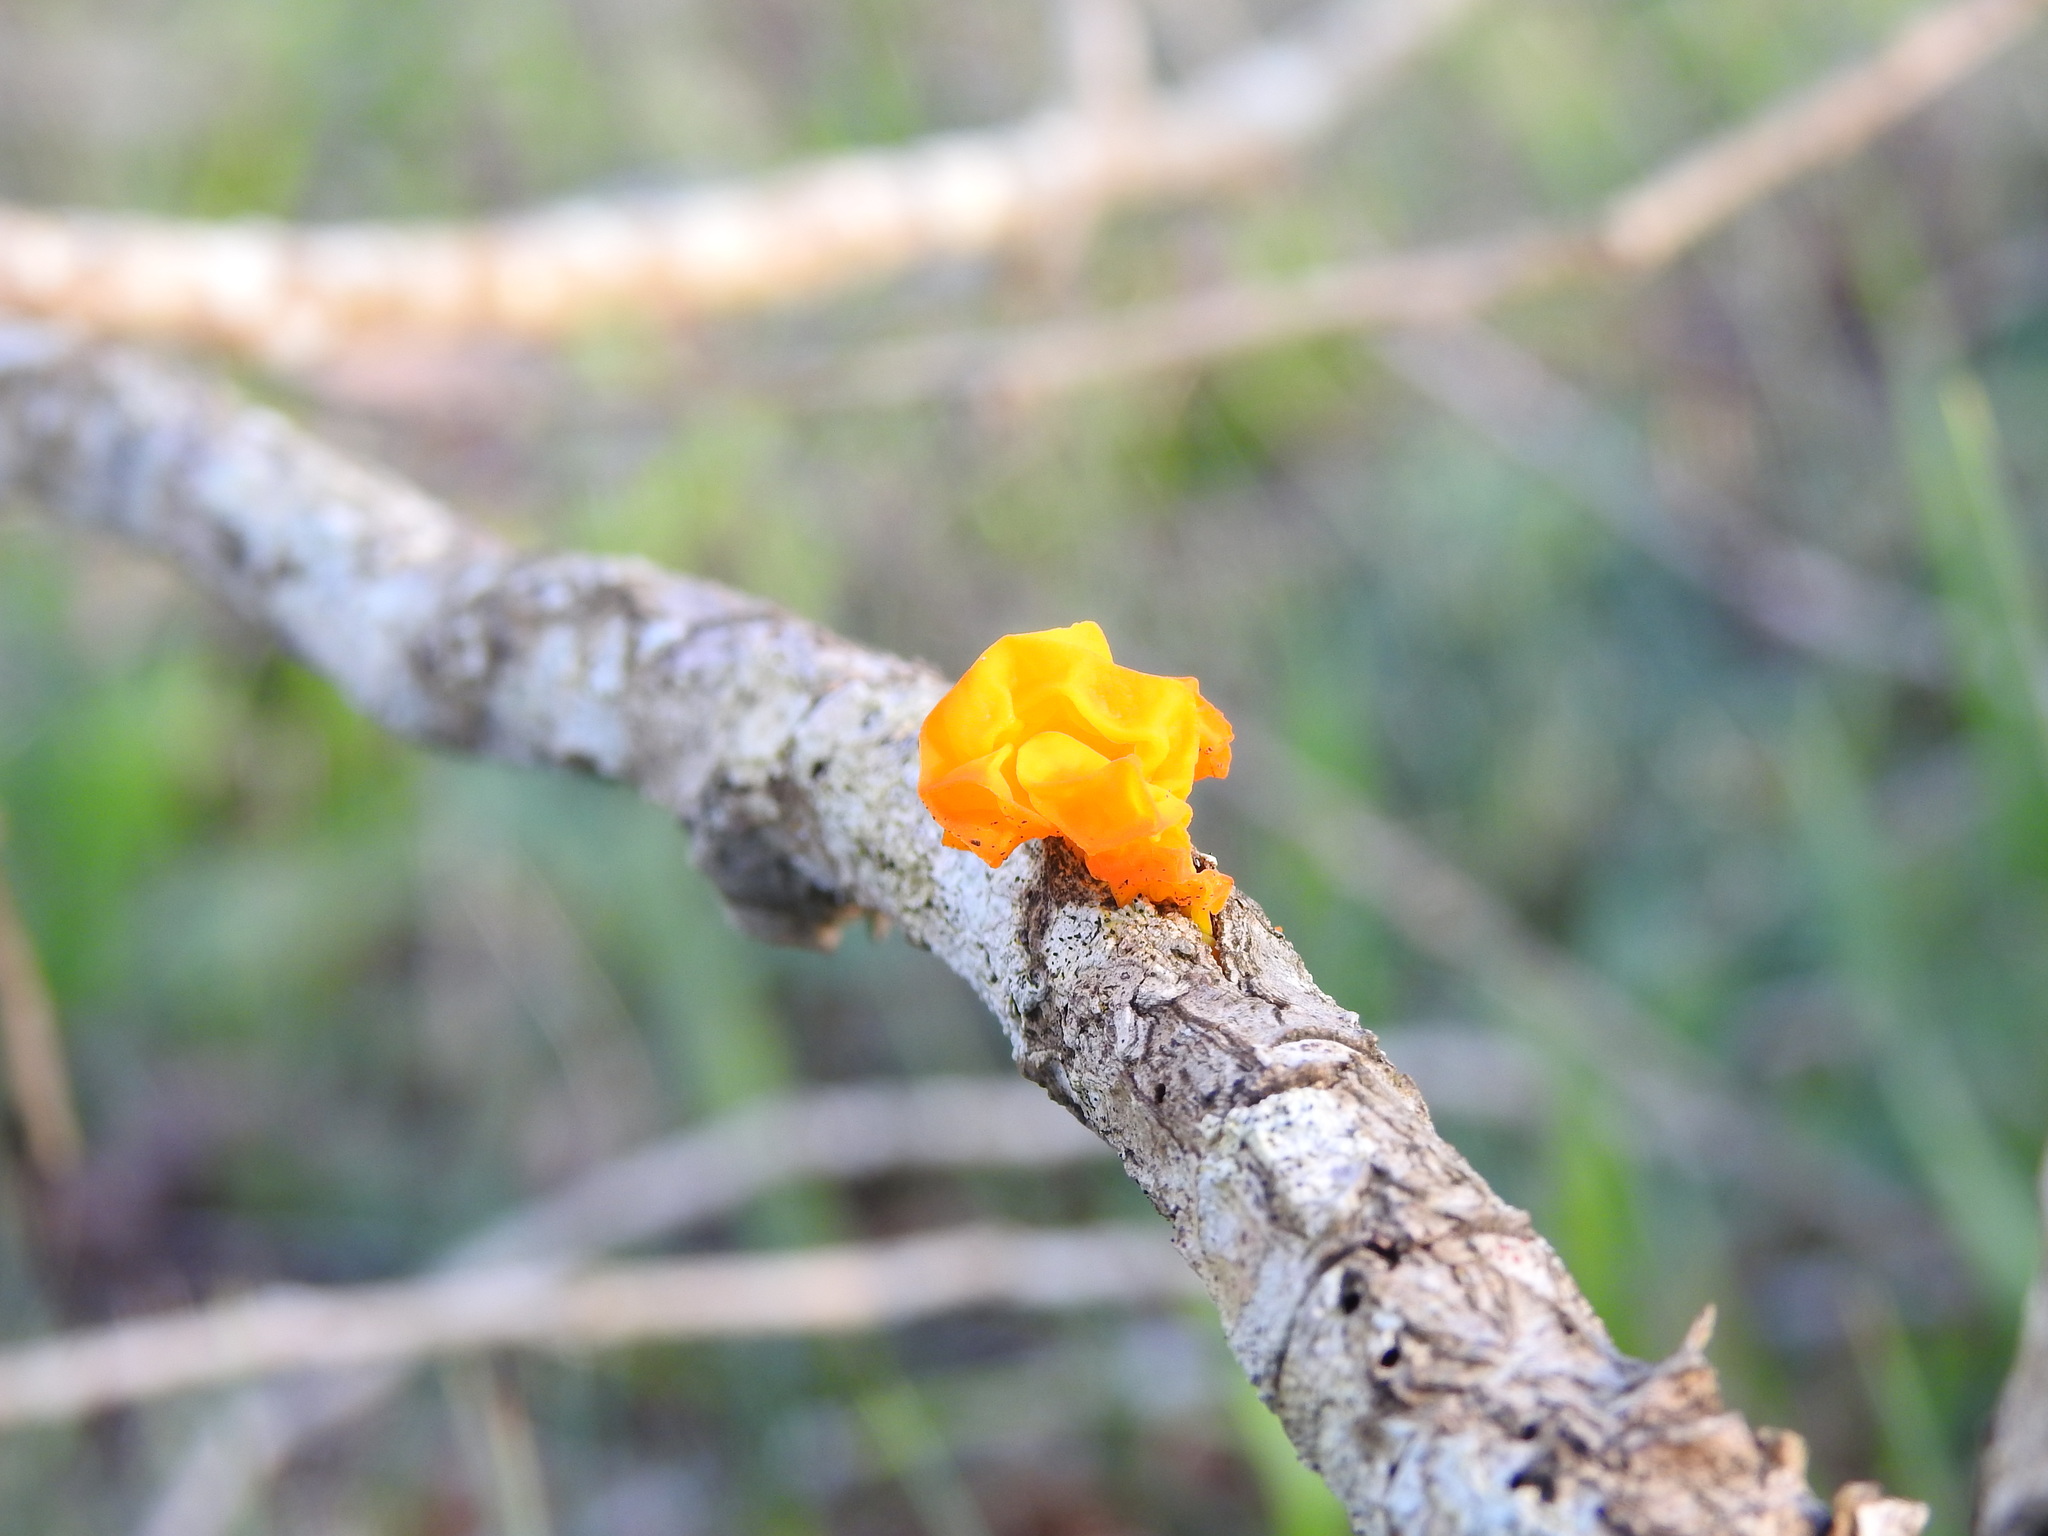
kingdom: Fungi
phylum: Basidiomycota
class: Tremellomycetes
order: Tremellales
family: Tremellaceae
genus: Tremella
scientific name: Tremella mesenterica
